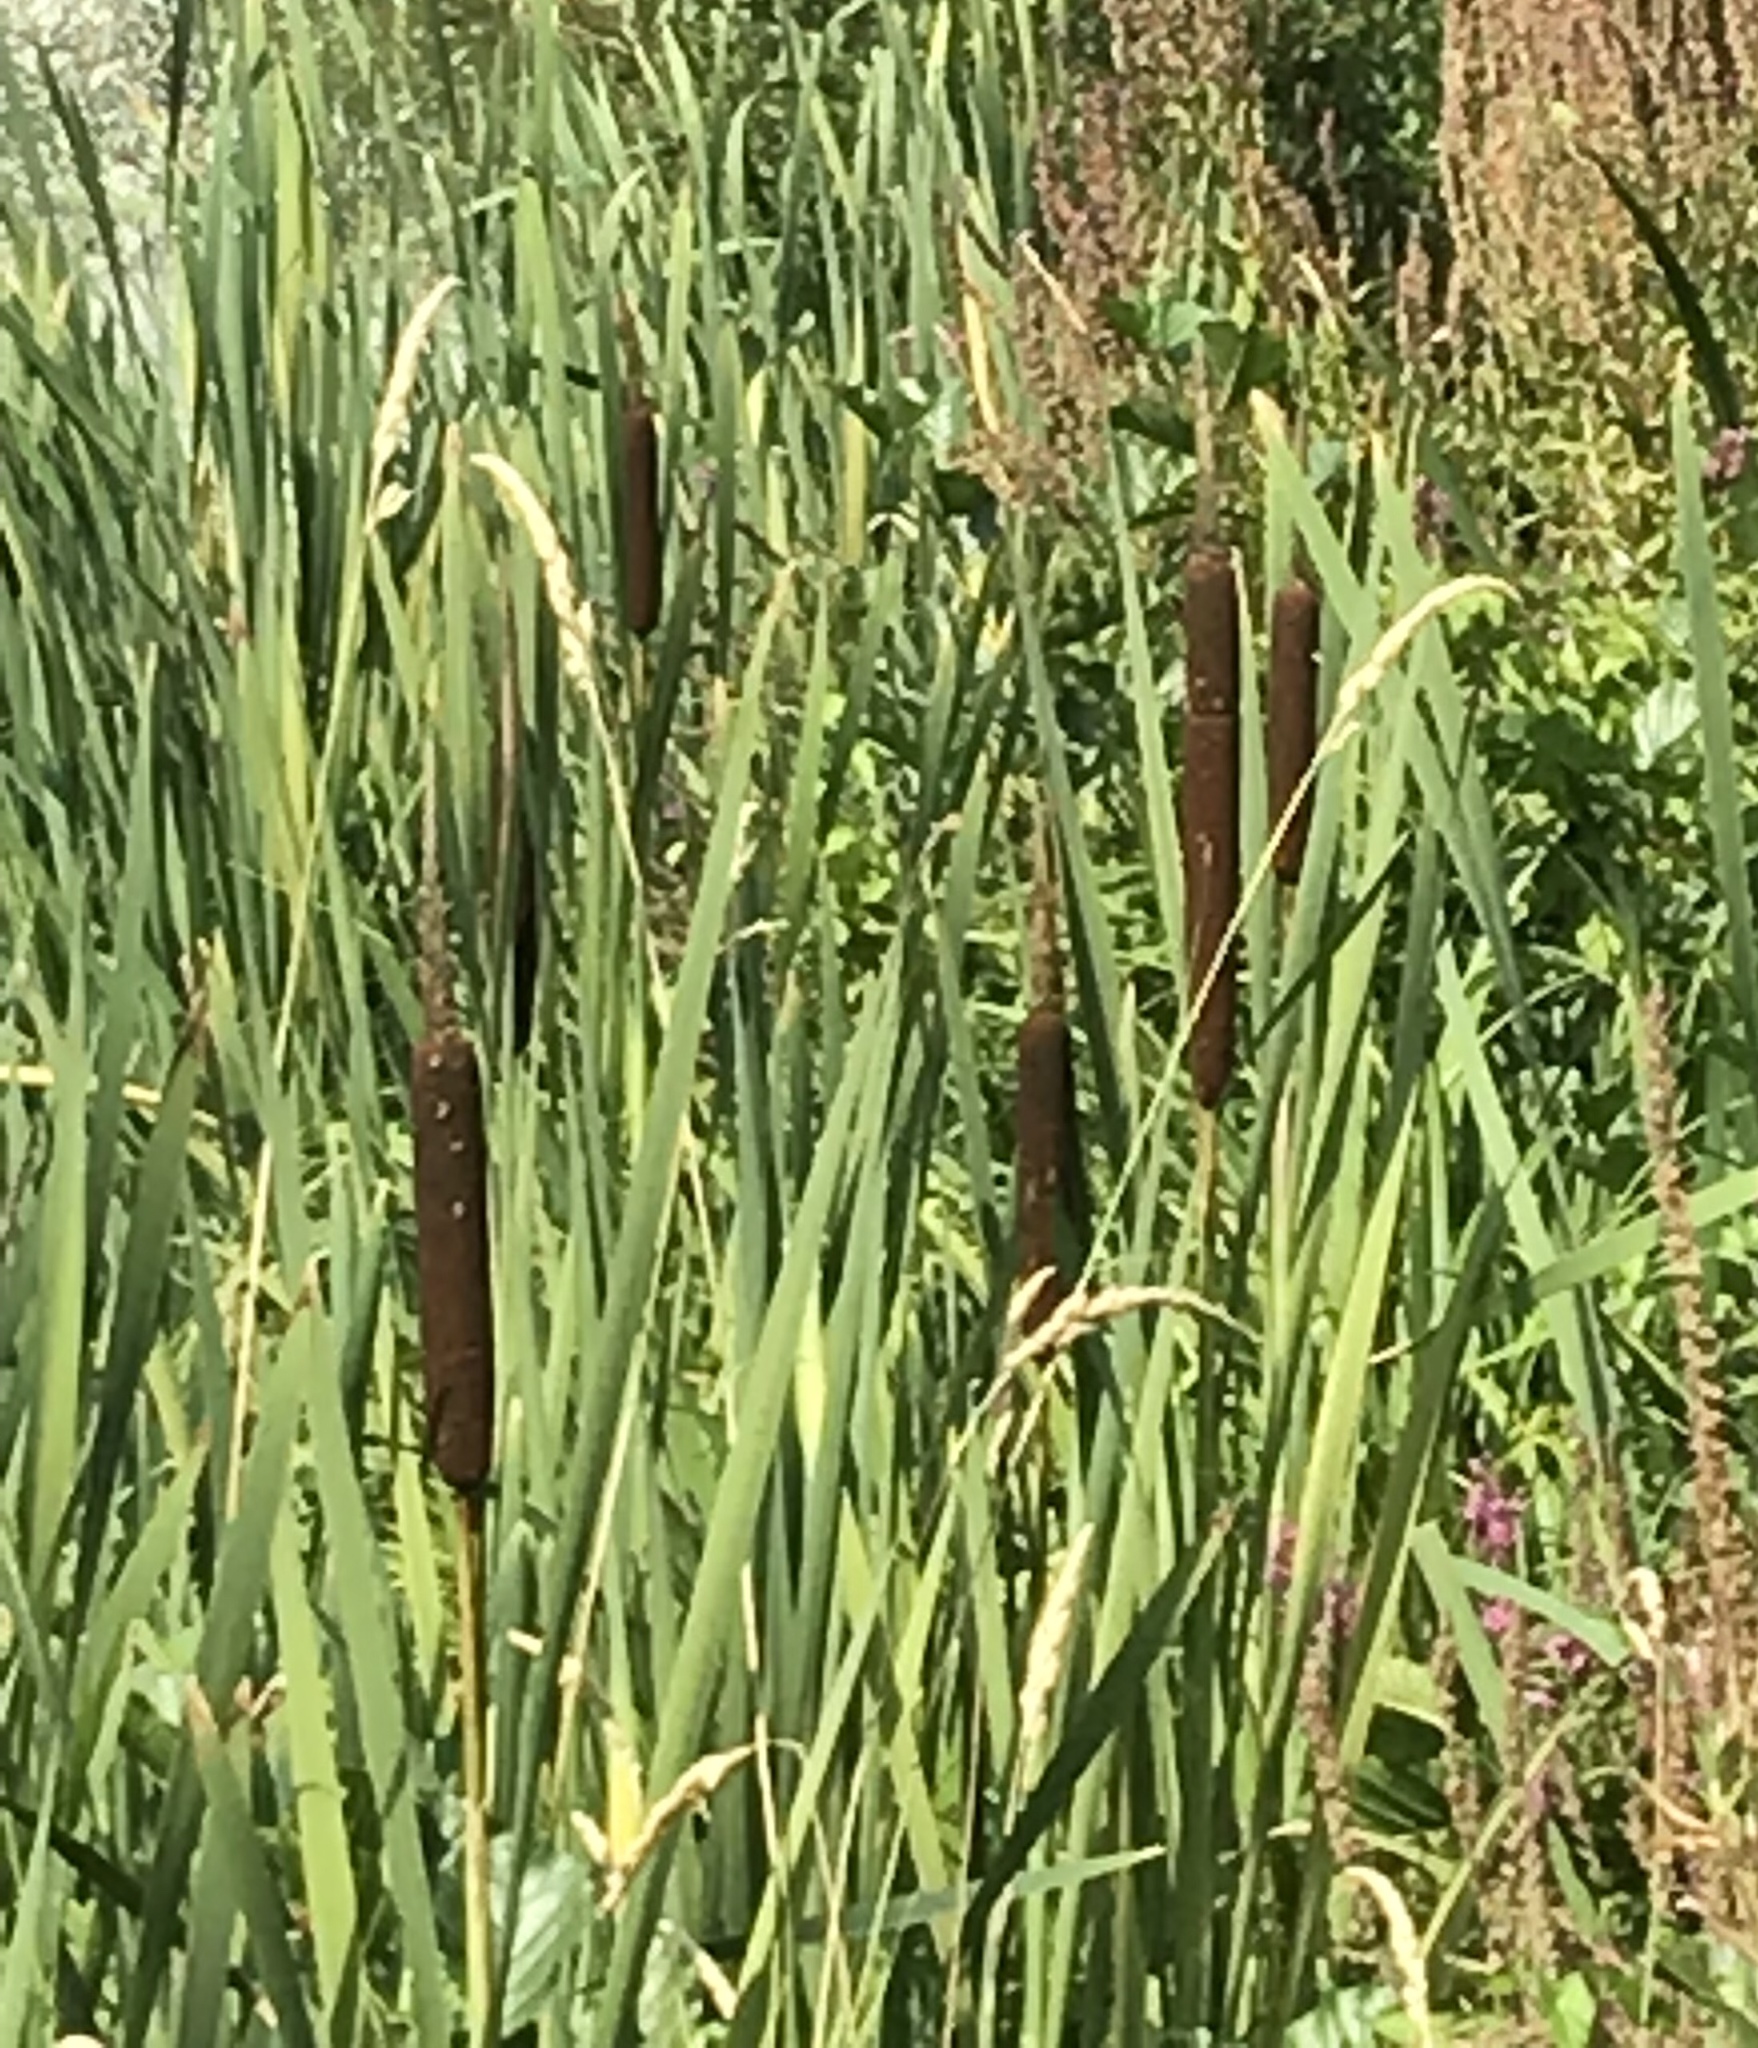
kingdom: Plantae
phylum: Tracheophyta
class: Liliopsida
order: Poales
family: Typhaceae
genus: Typha
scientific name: Typha latifolia
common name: Broadleaf cattail
